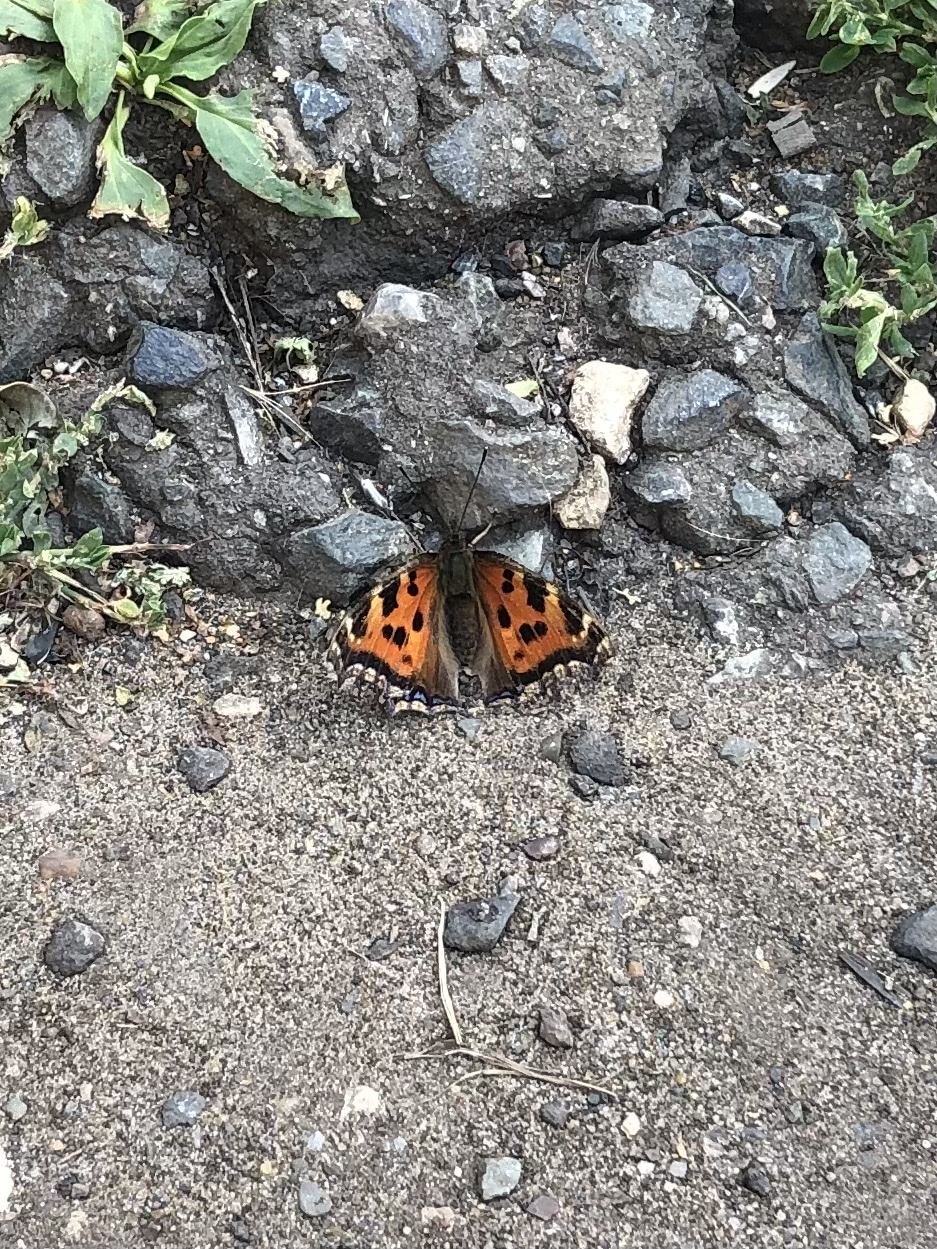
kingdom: Animalia
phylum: Arthropoda
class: Insecta
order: Lepidoptera
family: Nymphalidae
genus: Nymphalis
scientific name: Nymphalis xanthomelas
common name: Scarce tortoiseshell
